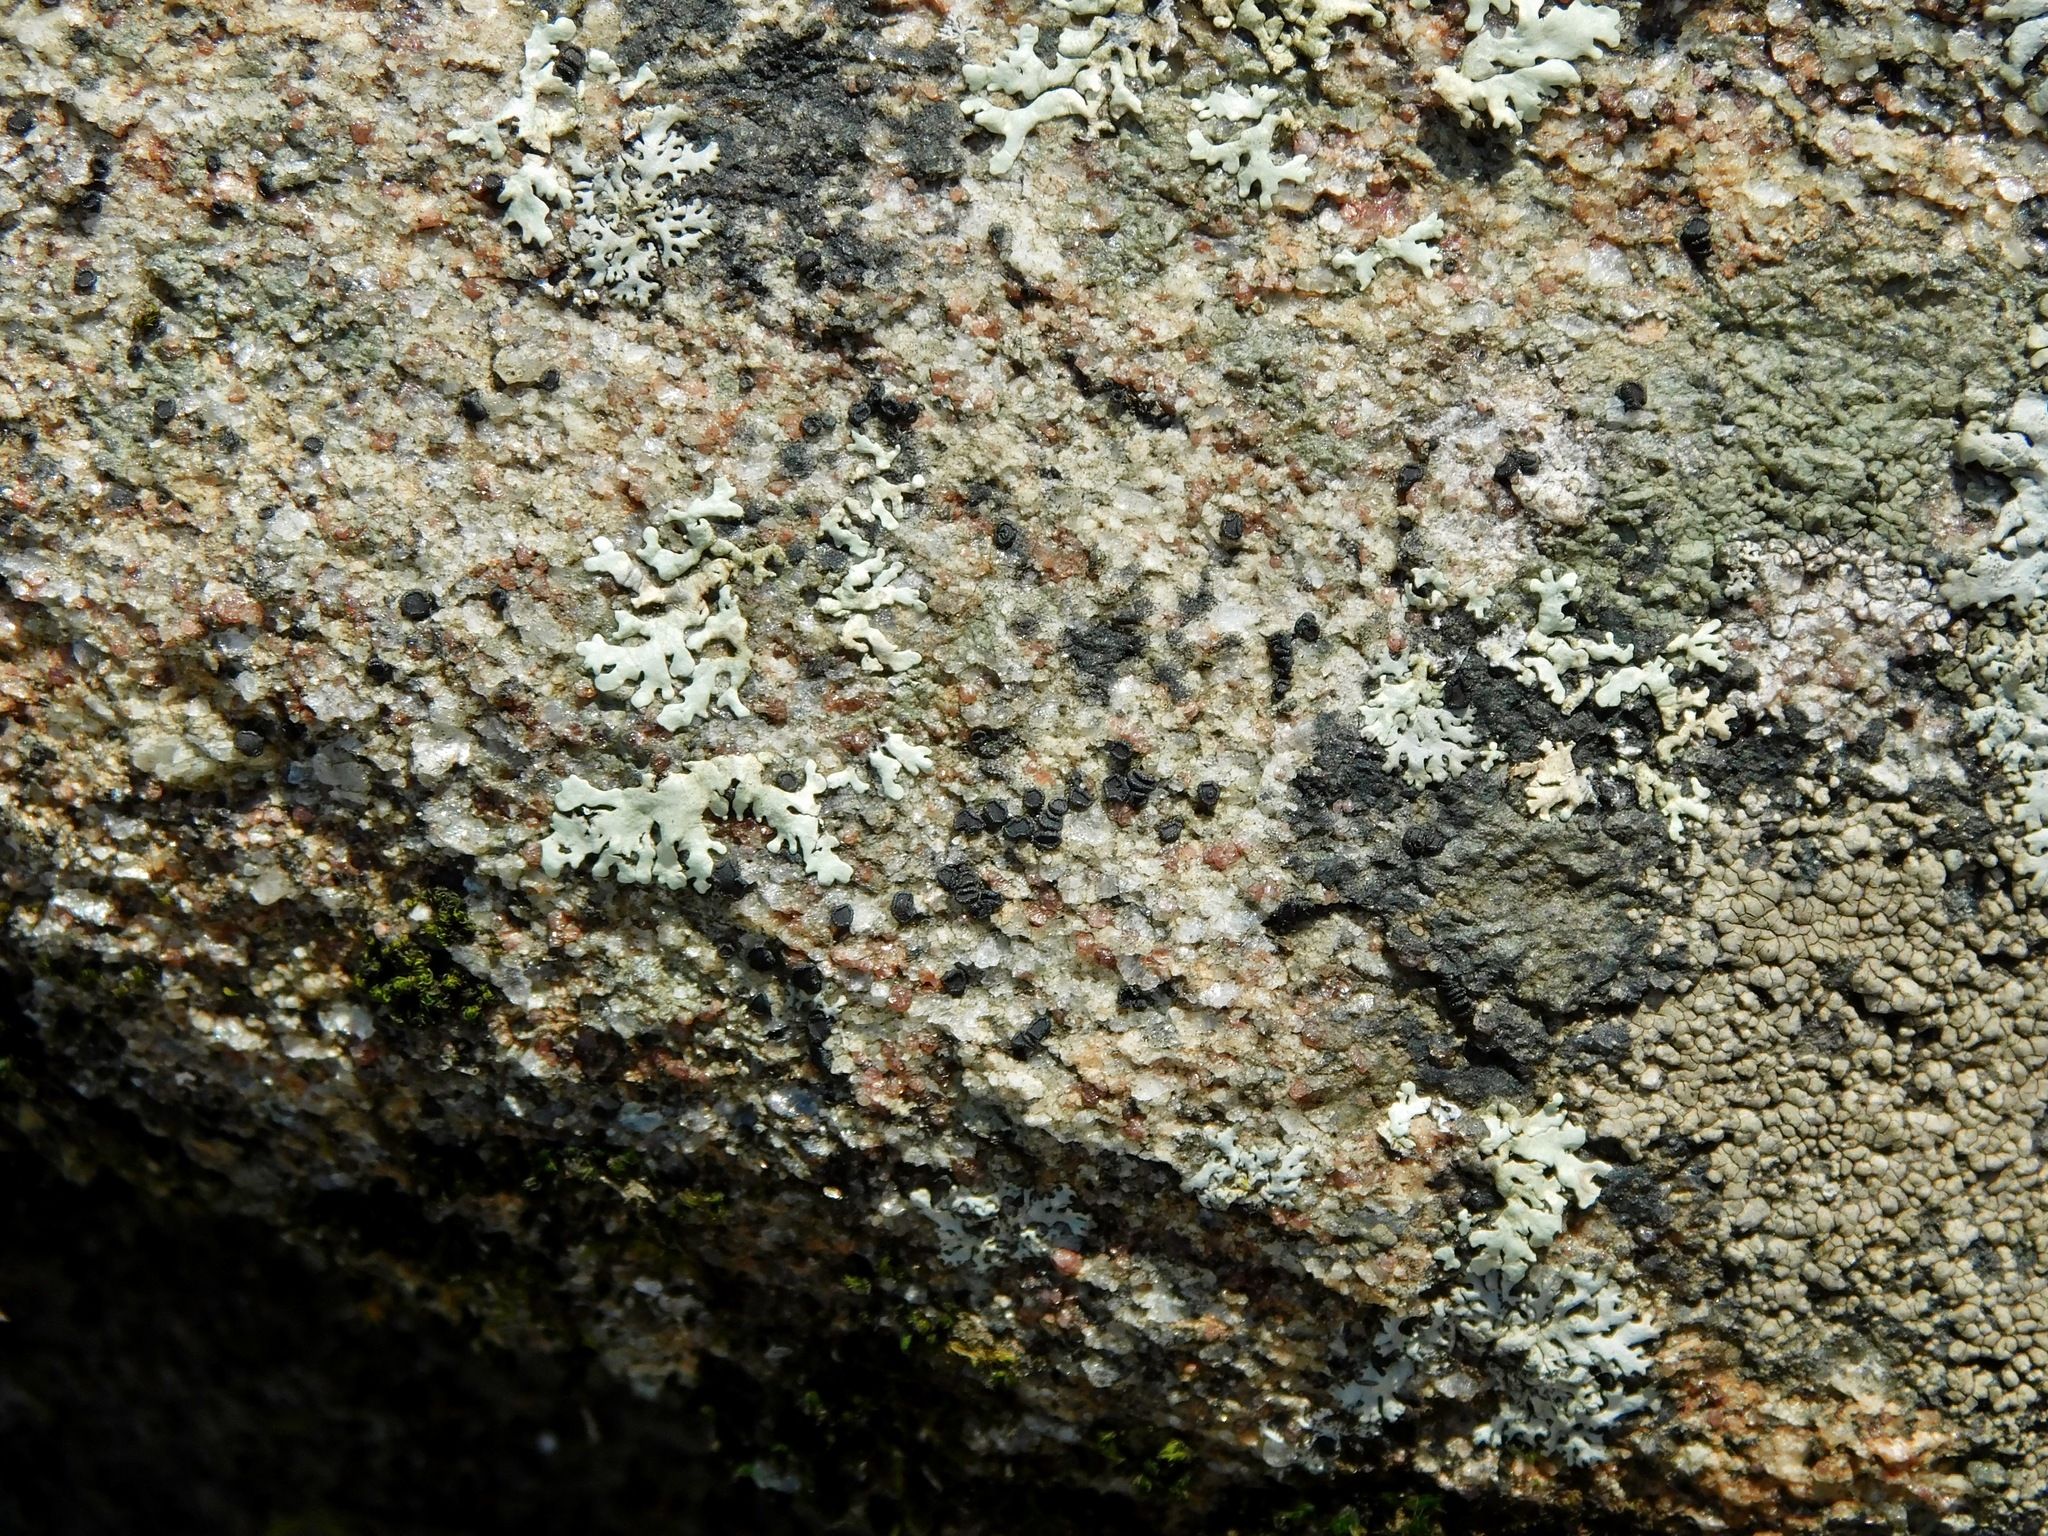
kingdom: Fungi
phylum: Ascomycota
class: Lecanoromycetes
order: Acarosporales
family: Acarosporaceae
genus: Acarospora
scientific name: Acarospora privigna
